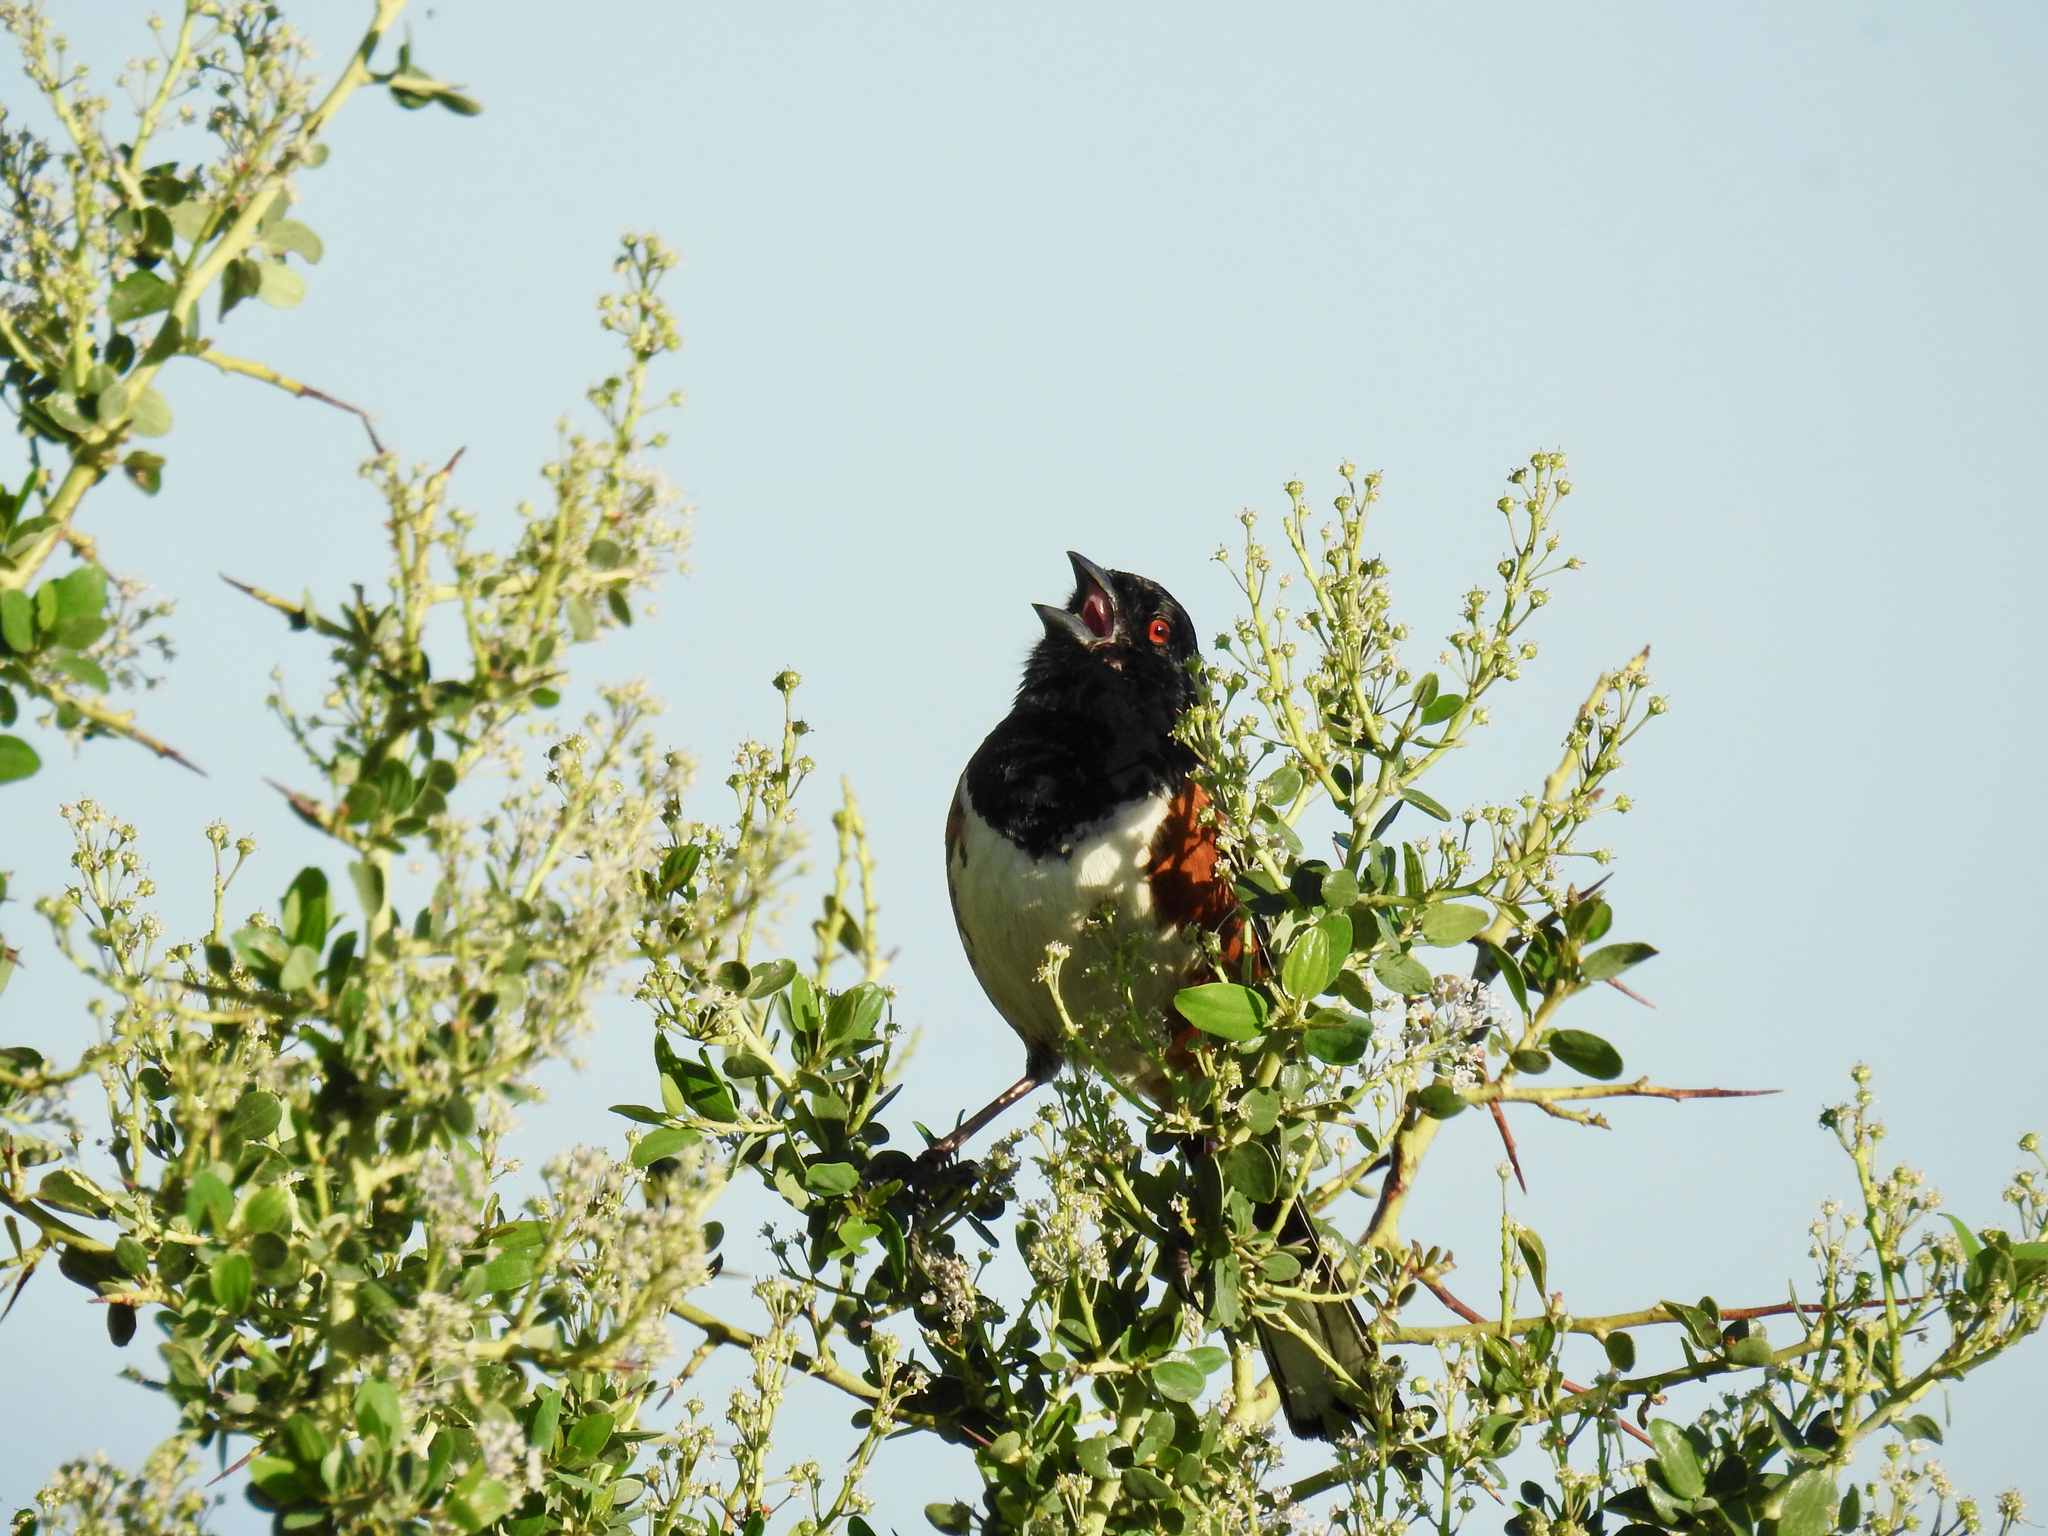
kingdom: Animalia
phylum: Chordata
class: Aves
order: Passeriformes
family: Passerellidae
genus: Pipilo
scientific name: Pipilo maculatus
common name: Spotted towhee
